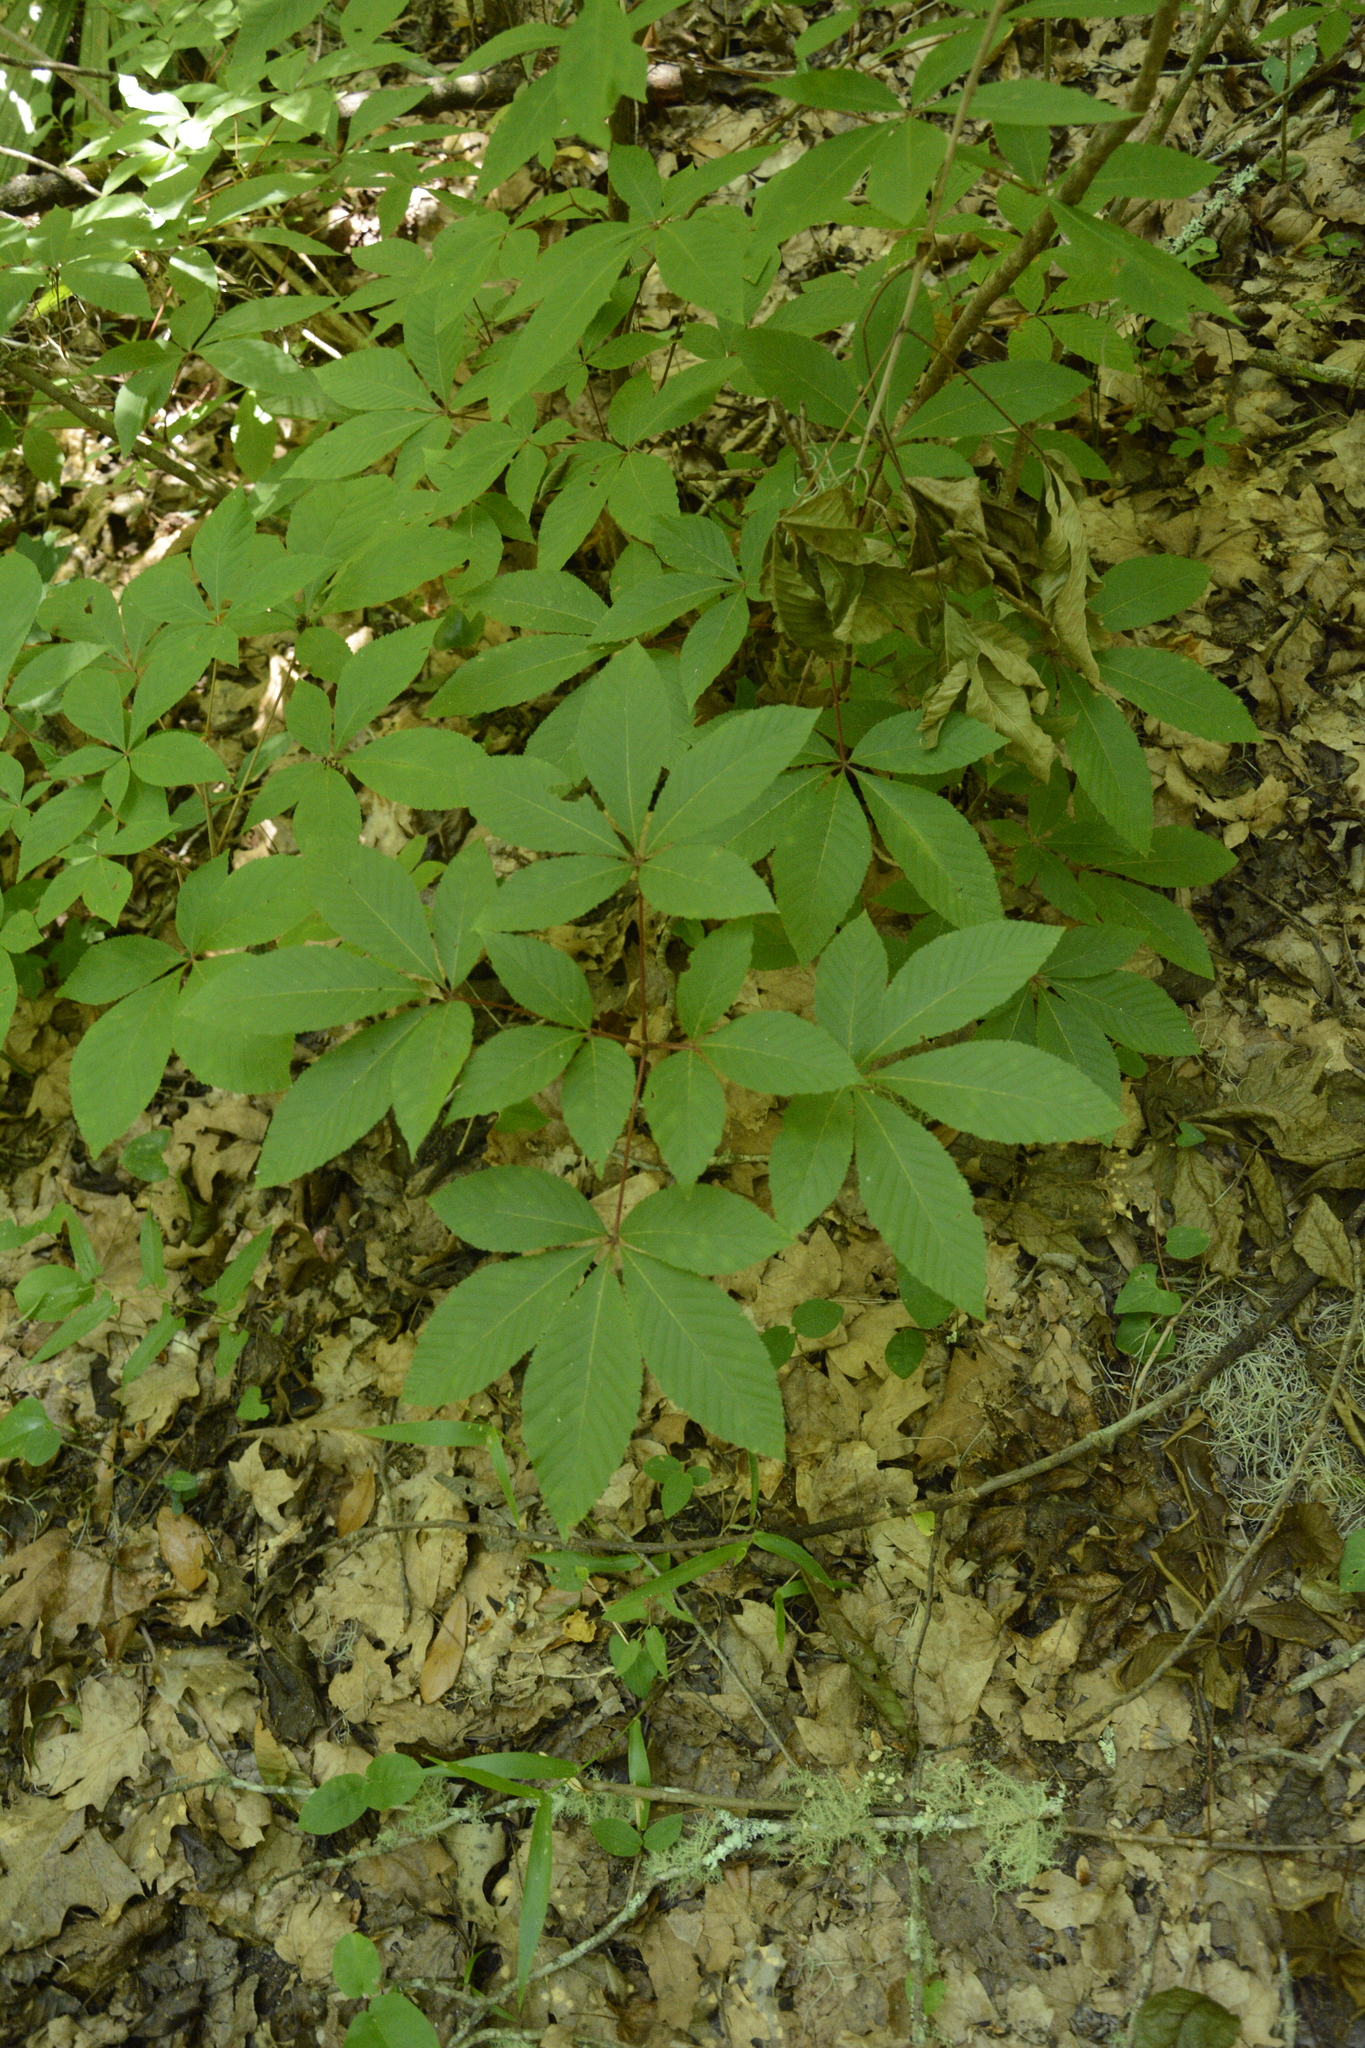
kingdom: Plantae
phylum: Tracheophyta
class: Magnoliopsida
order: Sapindales
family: Sapindaceae
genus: Aesculus
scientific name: Aesculus pavia
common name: Red buckeye
